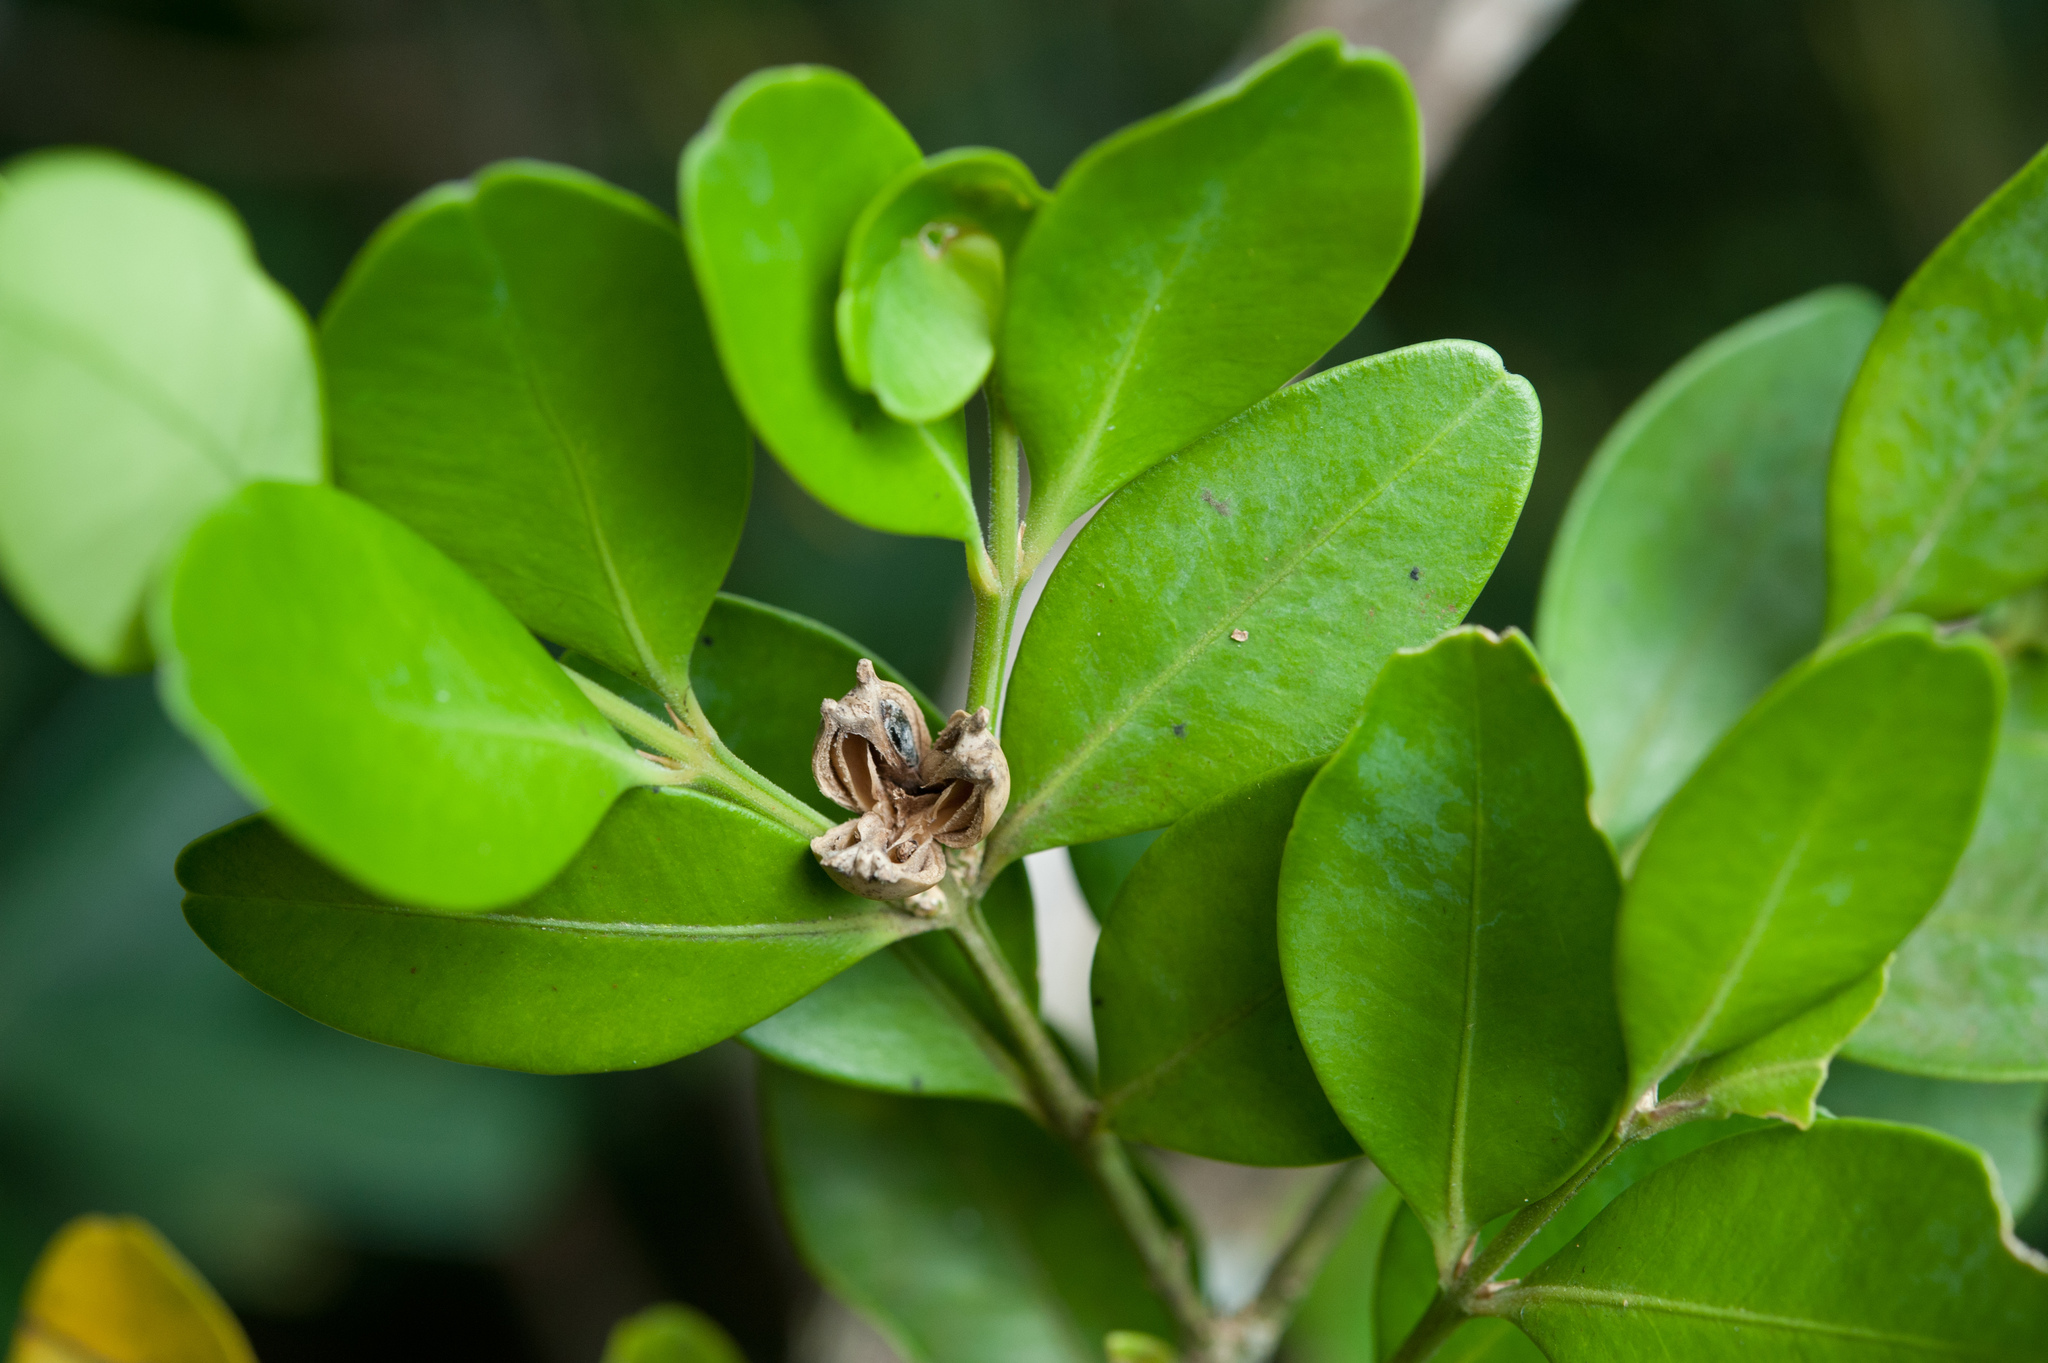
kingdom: Plantae
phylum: Tracheophyta
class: Magnoliopsida
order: Buxales
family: Buxaceae
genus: Buxus
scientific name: Buxus liukiuensis
